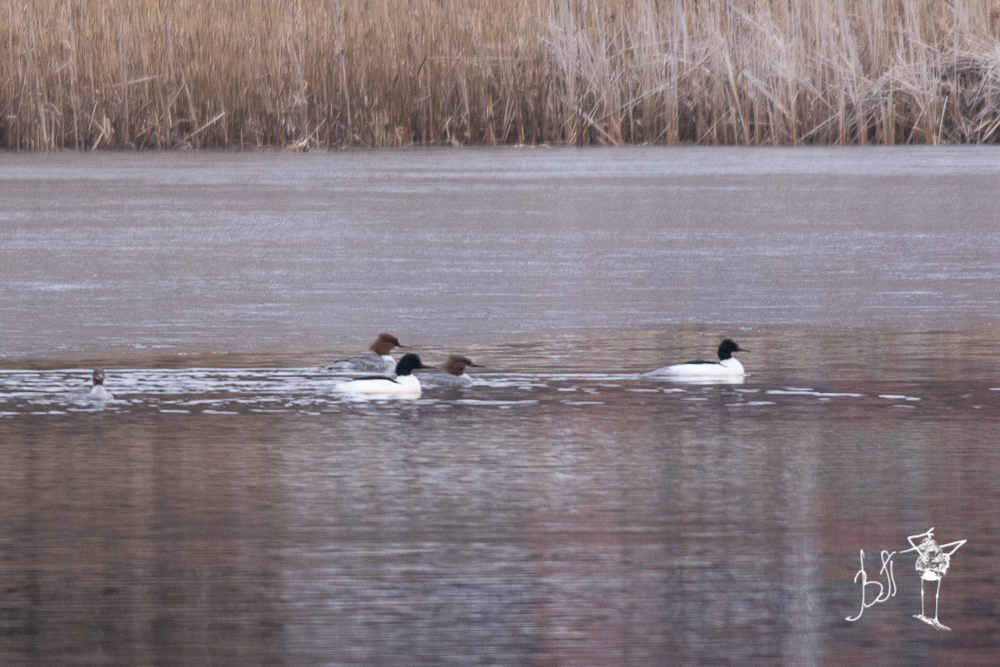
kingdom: Animalia
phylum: Chordata
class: Aves
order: Anseriformes
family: Anatidae
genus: Mergus
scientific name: Mergus merganser
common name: Common merganser
